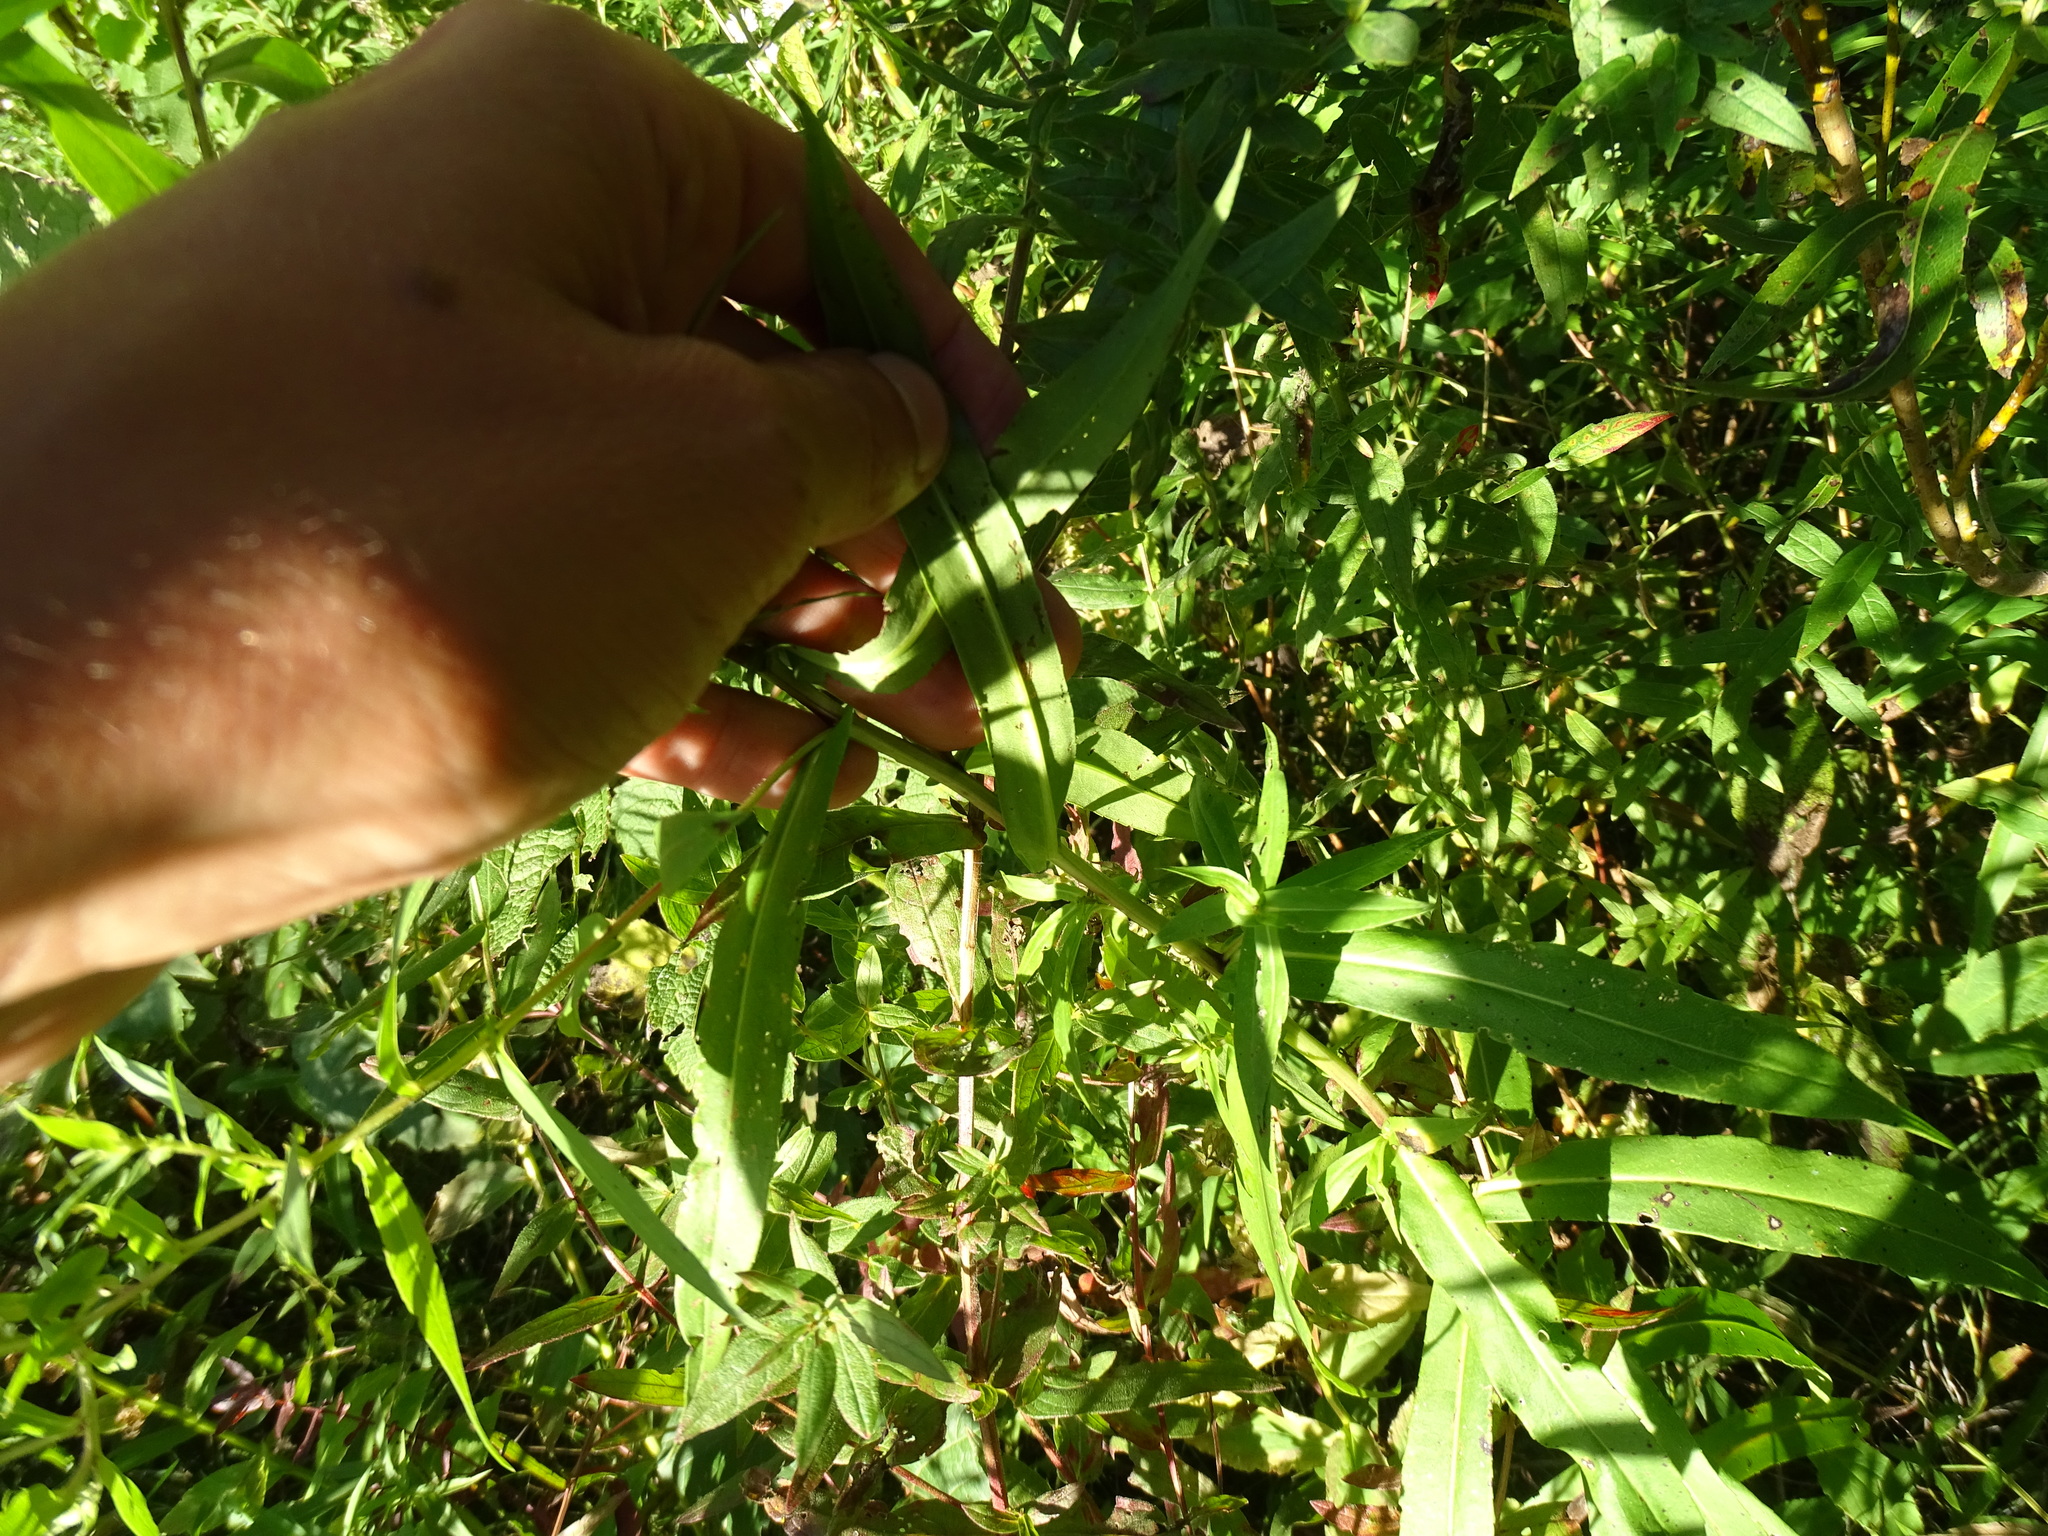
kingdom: Plantae
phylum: Tracheophyta
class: Magnoliopsida
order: Asterales
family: Asteraceae
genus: Symphyotrichum
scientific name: Symphyotrichum firmum
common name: Shining aster
